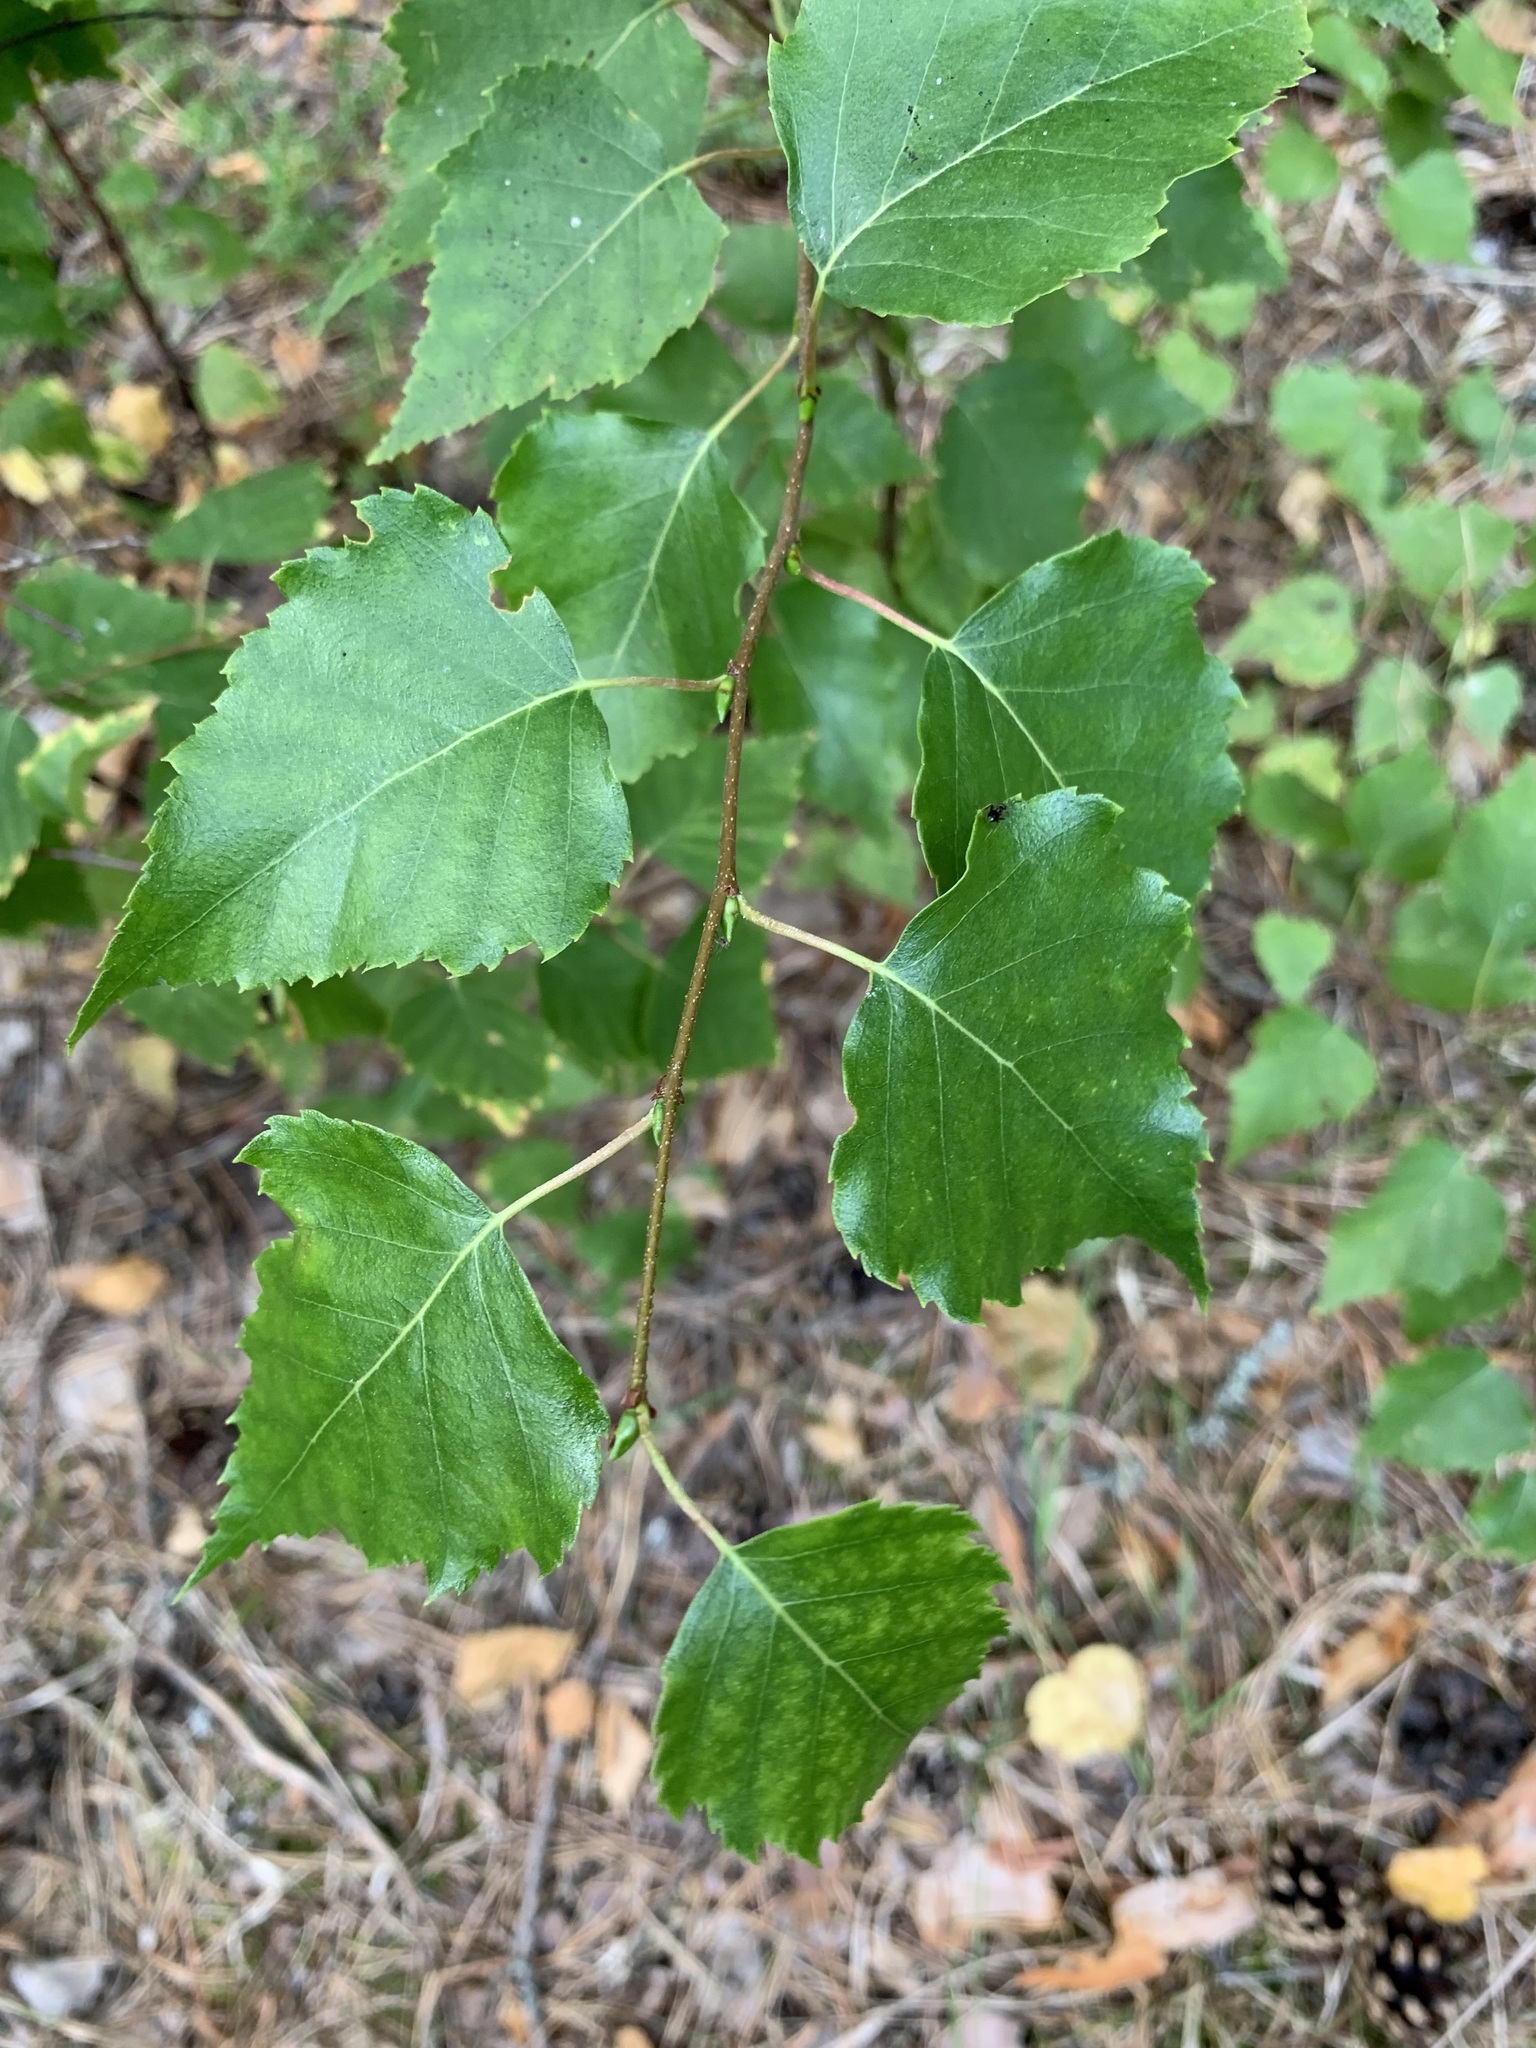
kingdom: Plantae
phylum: Tracheophyta
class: Magnoliopsida
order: Fagales
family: Betulaceae
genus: Betula
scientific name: Betula pendula
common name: Silver birch
